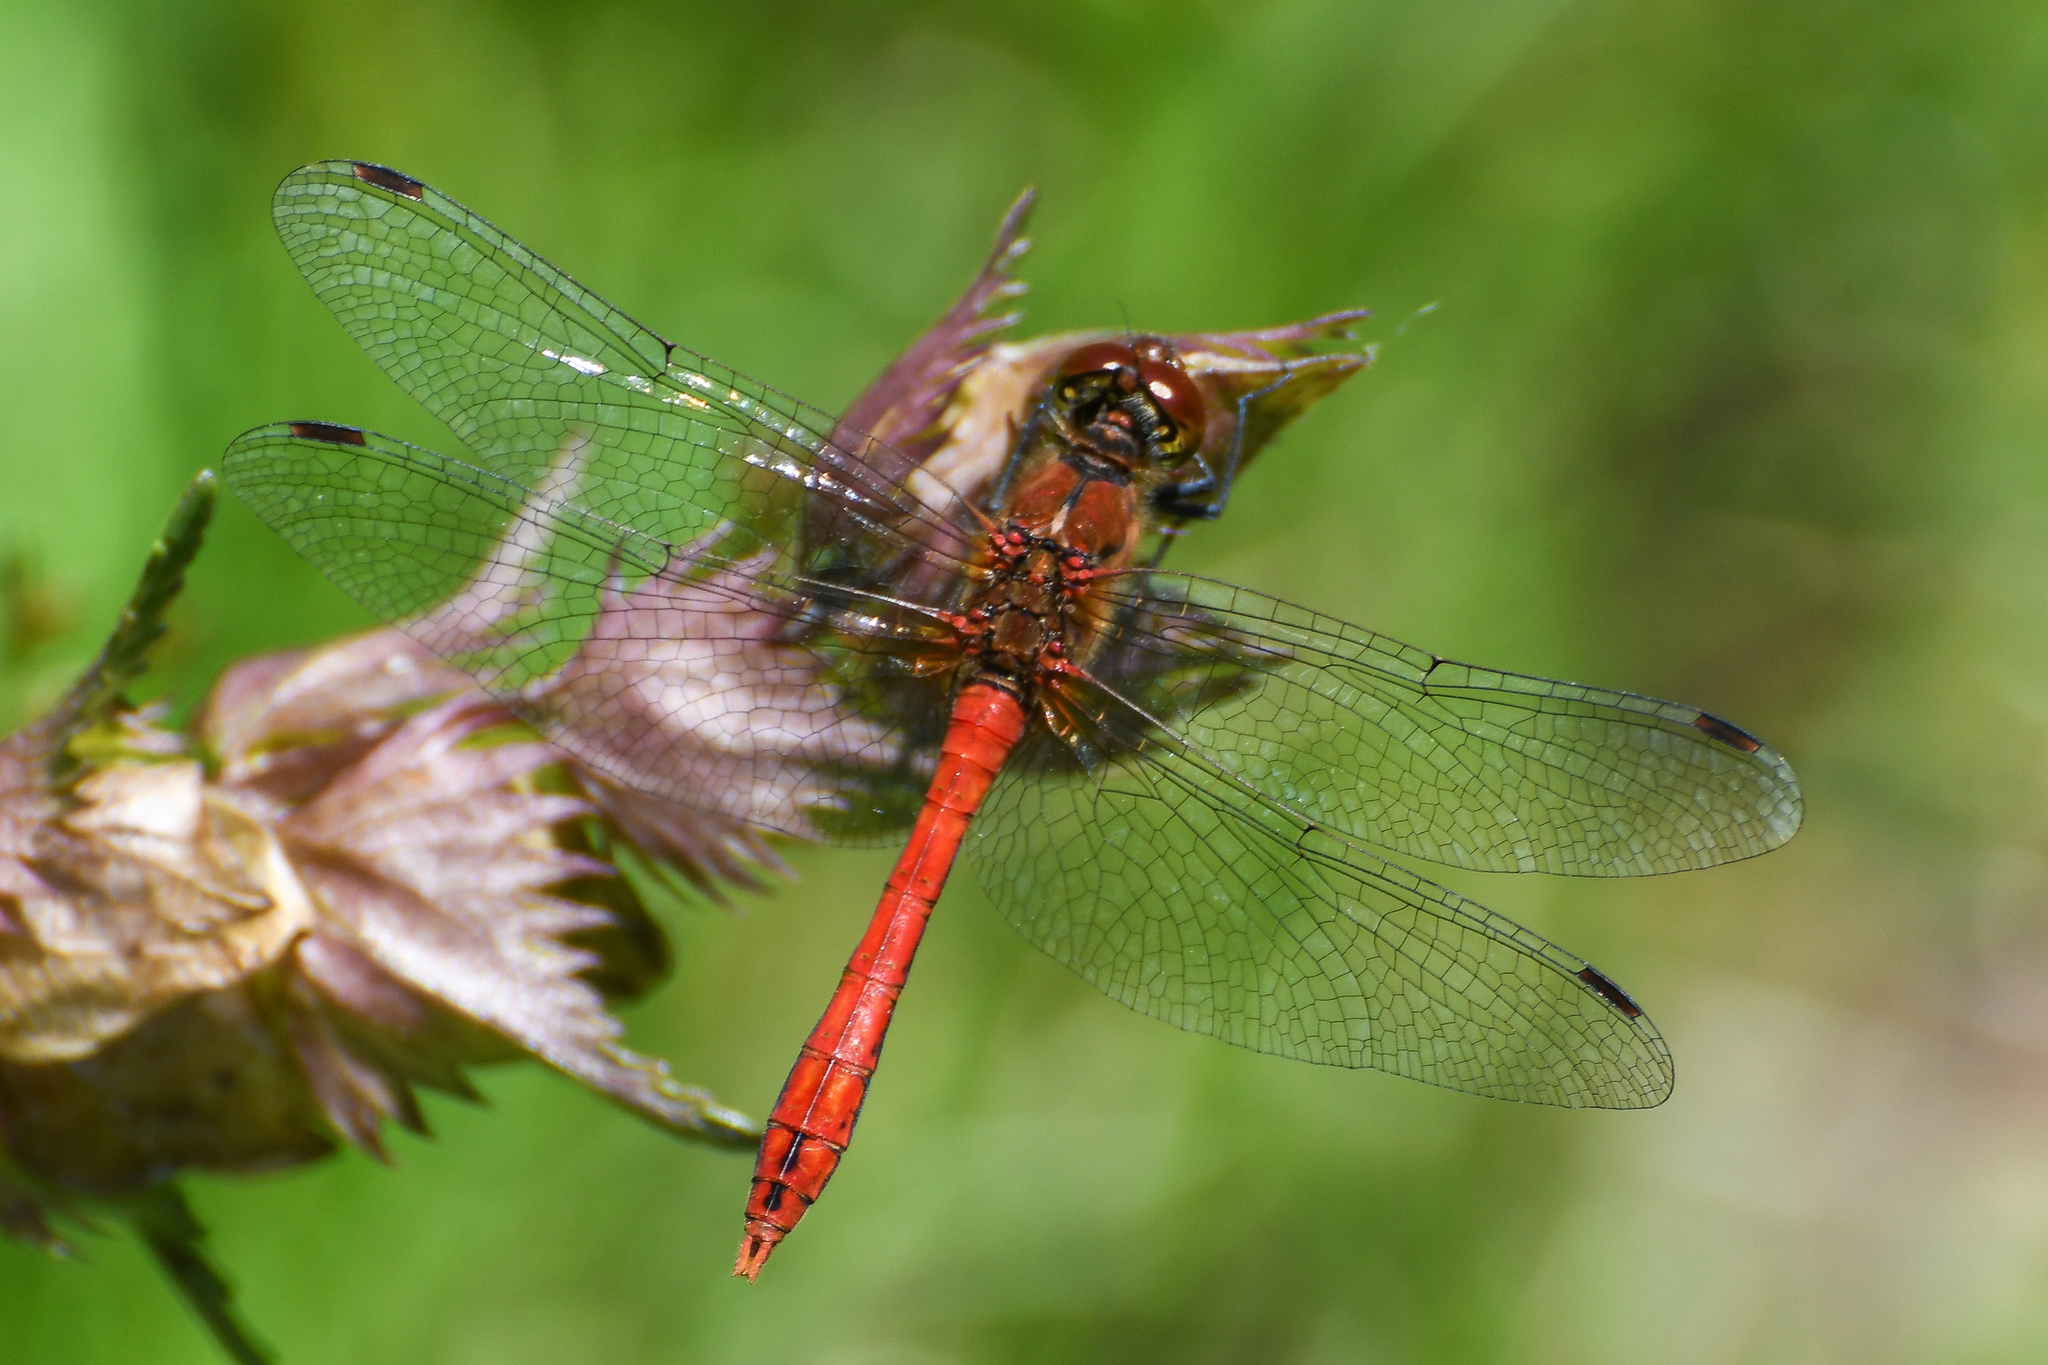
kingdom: Animalia
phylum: Arthropoda
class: Insecta
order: Odonata
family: Libellulidae
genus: Sympetrum
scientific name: Sympetrum sanguineum
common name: Ruddy darter
